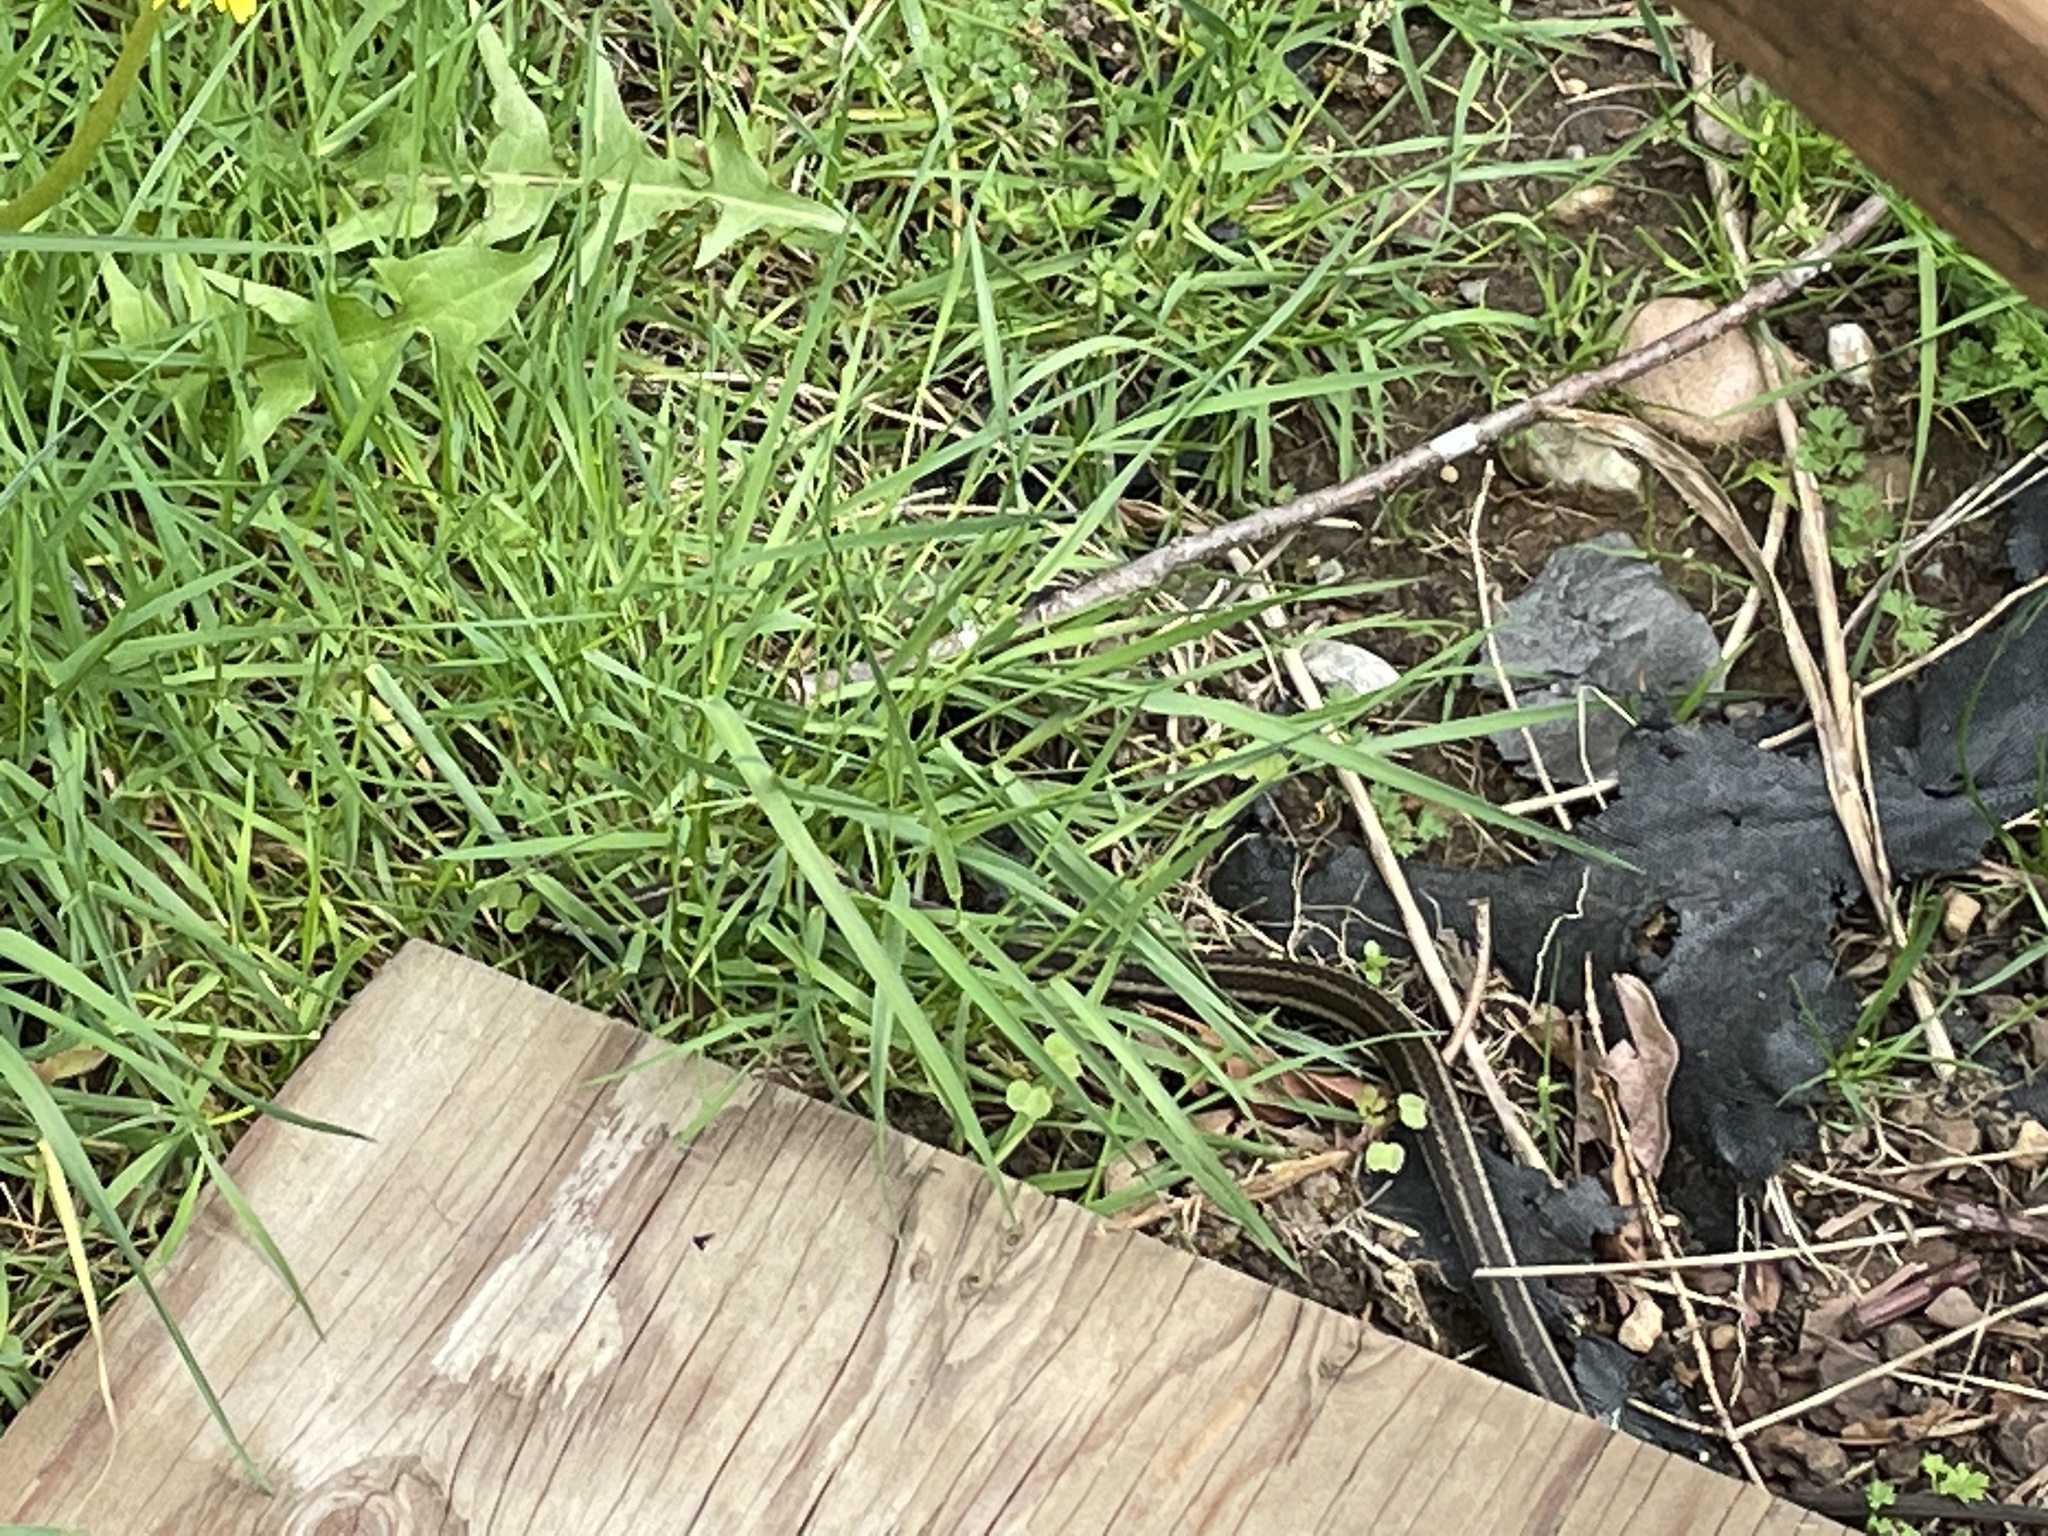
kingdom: Animalia
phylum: Chordata
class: Squamata
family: Colubridae
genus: Thamnophis
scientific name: Thamnophis ordinoides
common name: Northwestern garter snake
